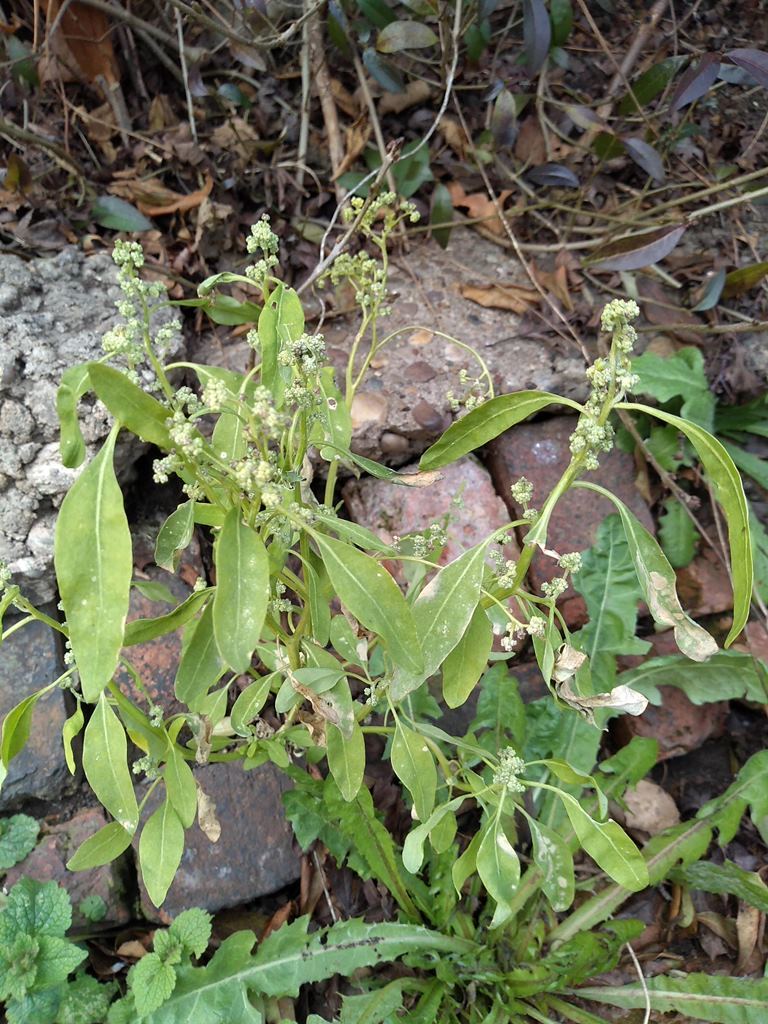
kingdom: Plantae
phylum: Tracheophyta
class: Magnoliopsida
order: Caryophyllales
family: Amaranthaceae
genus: Chenopodium
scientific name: Chenopodium album
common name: Fat-hen
